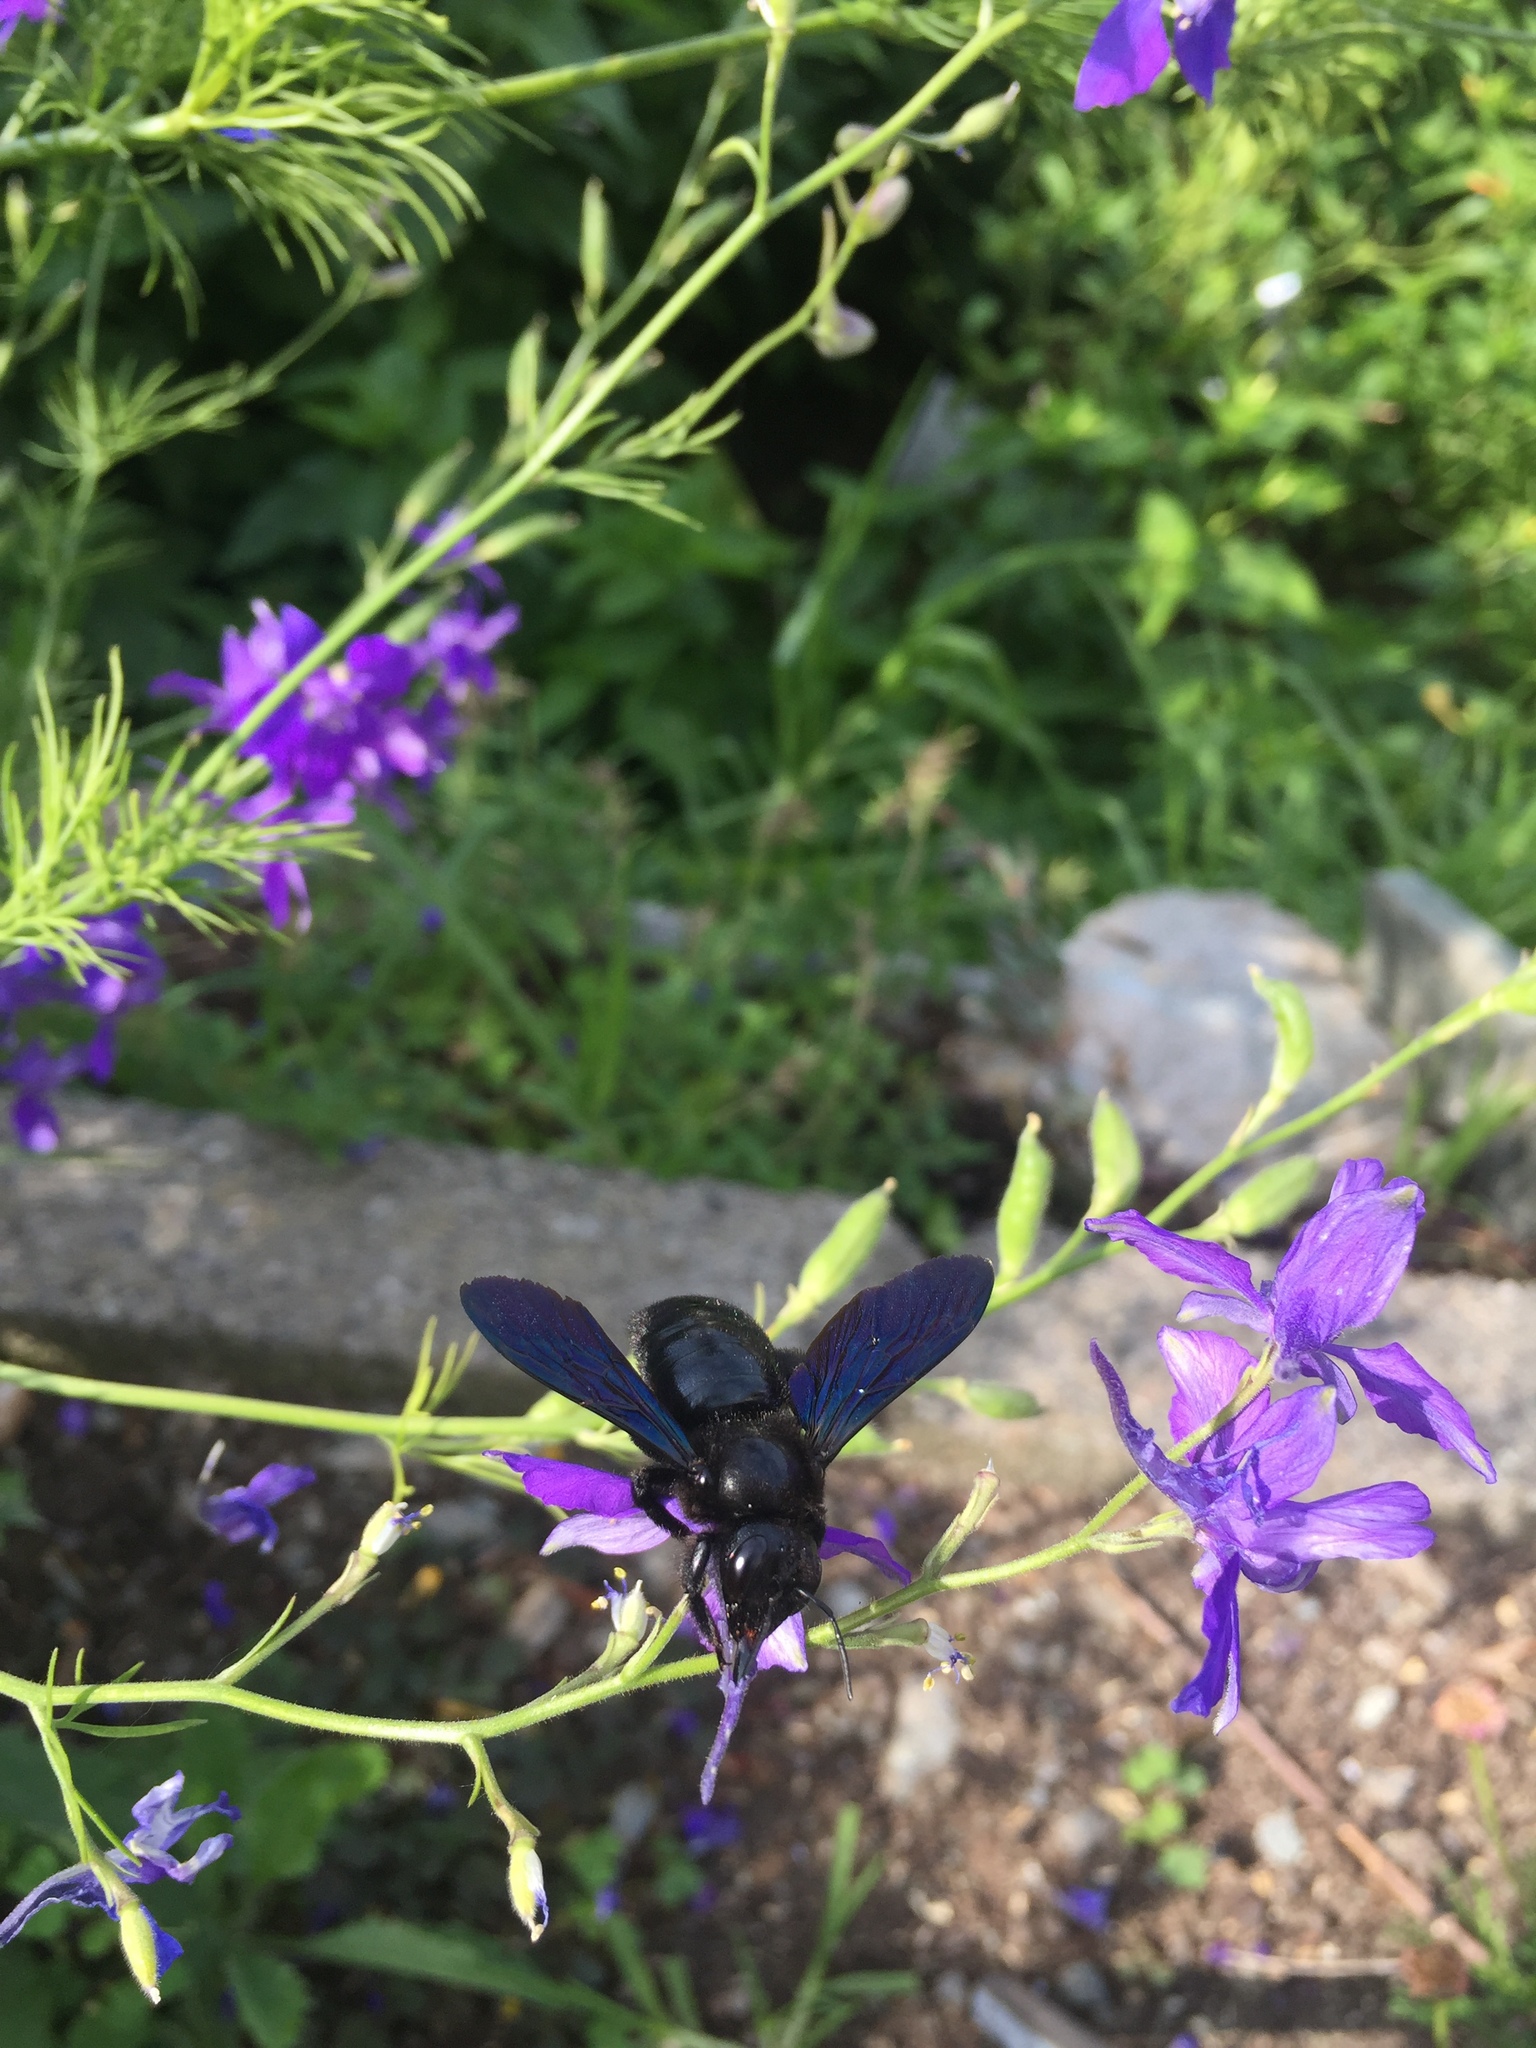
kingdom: Animalia
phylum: Arthropoda
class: Insecta
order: Hymenoptera
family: Apidae
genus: Xylocopa
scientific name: Xylocopa violacea
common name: Violet carpenter bee
